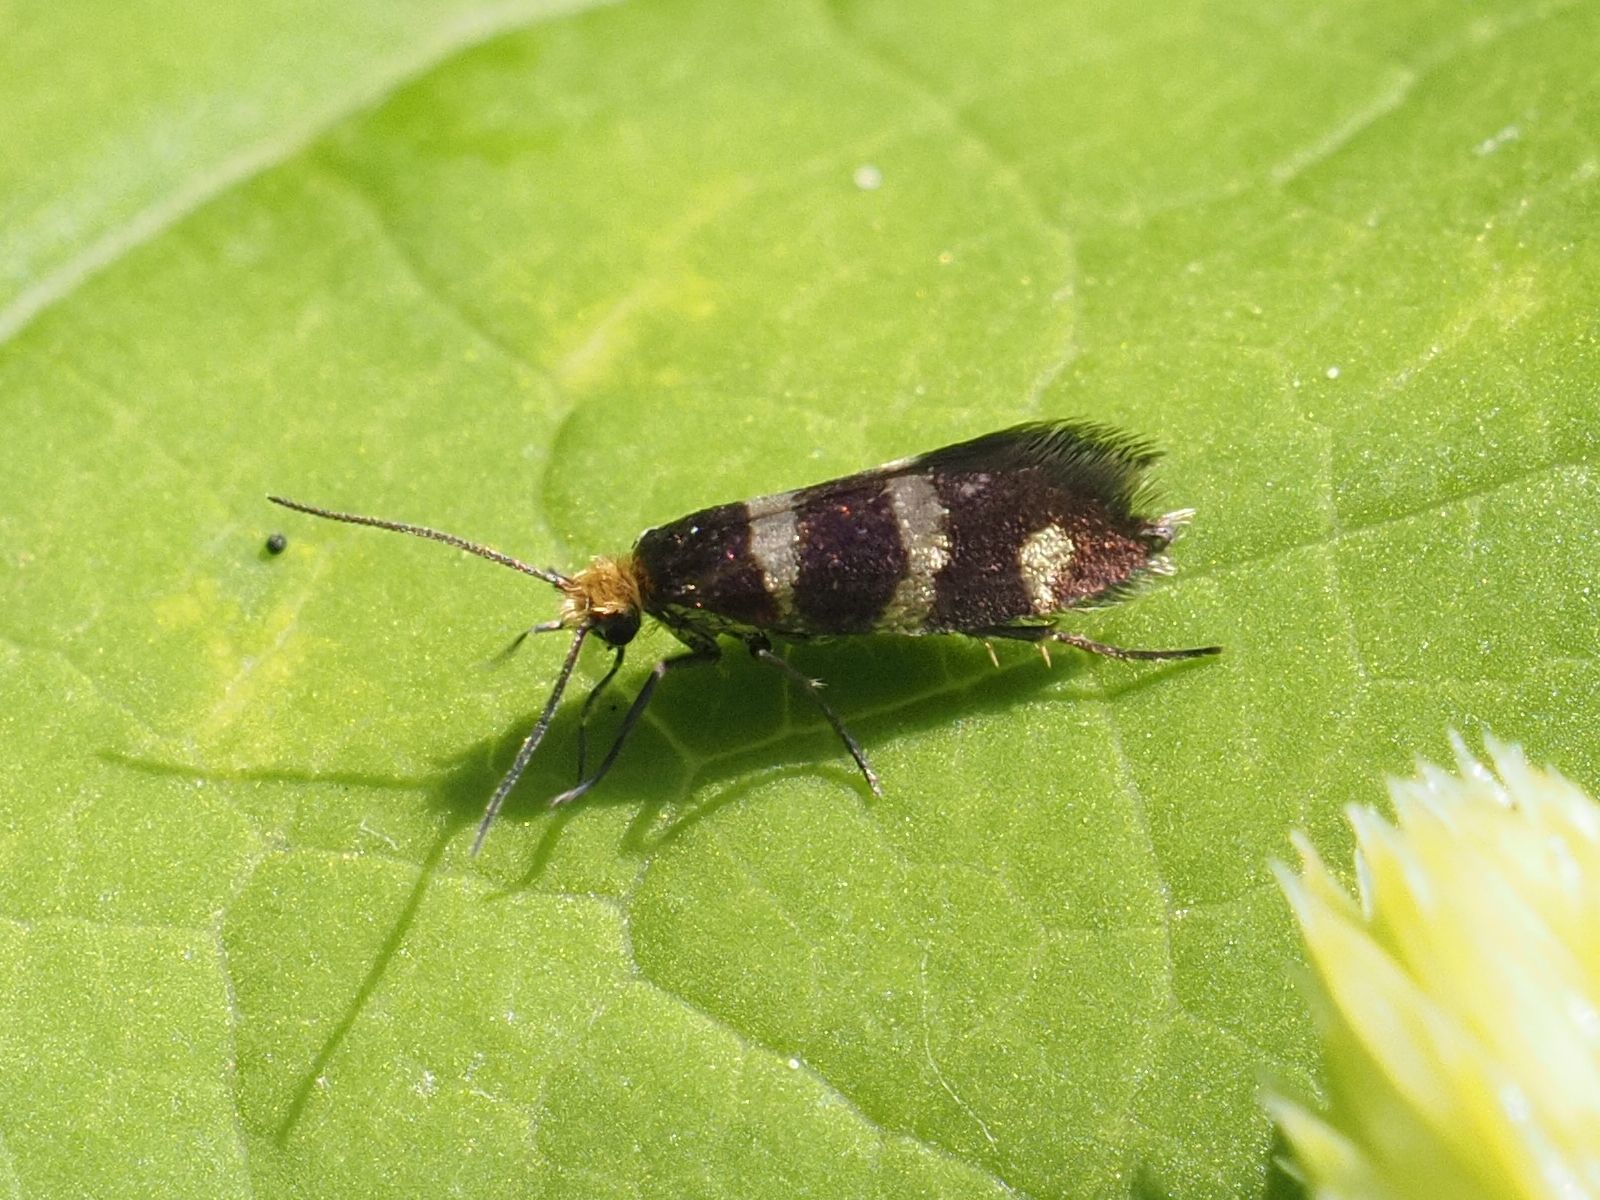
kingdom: Animalia
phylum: Arthropoda
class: Insecta
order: Lepidoptera
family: Micropterigidae
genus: Micropterix
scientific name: Micropterix aureatella
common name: Yellow-barred gold
